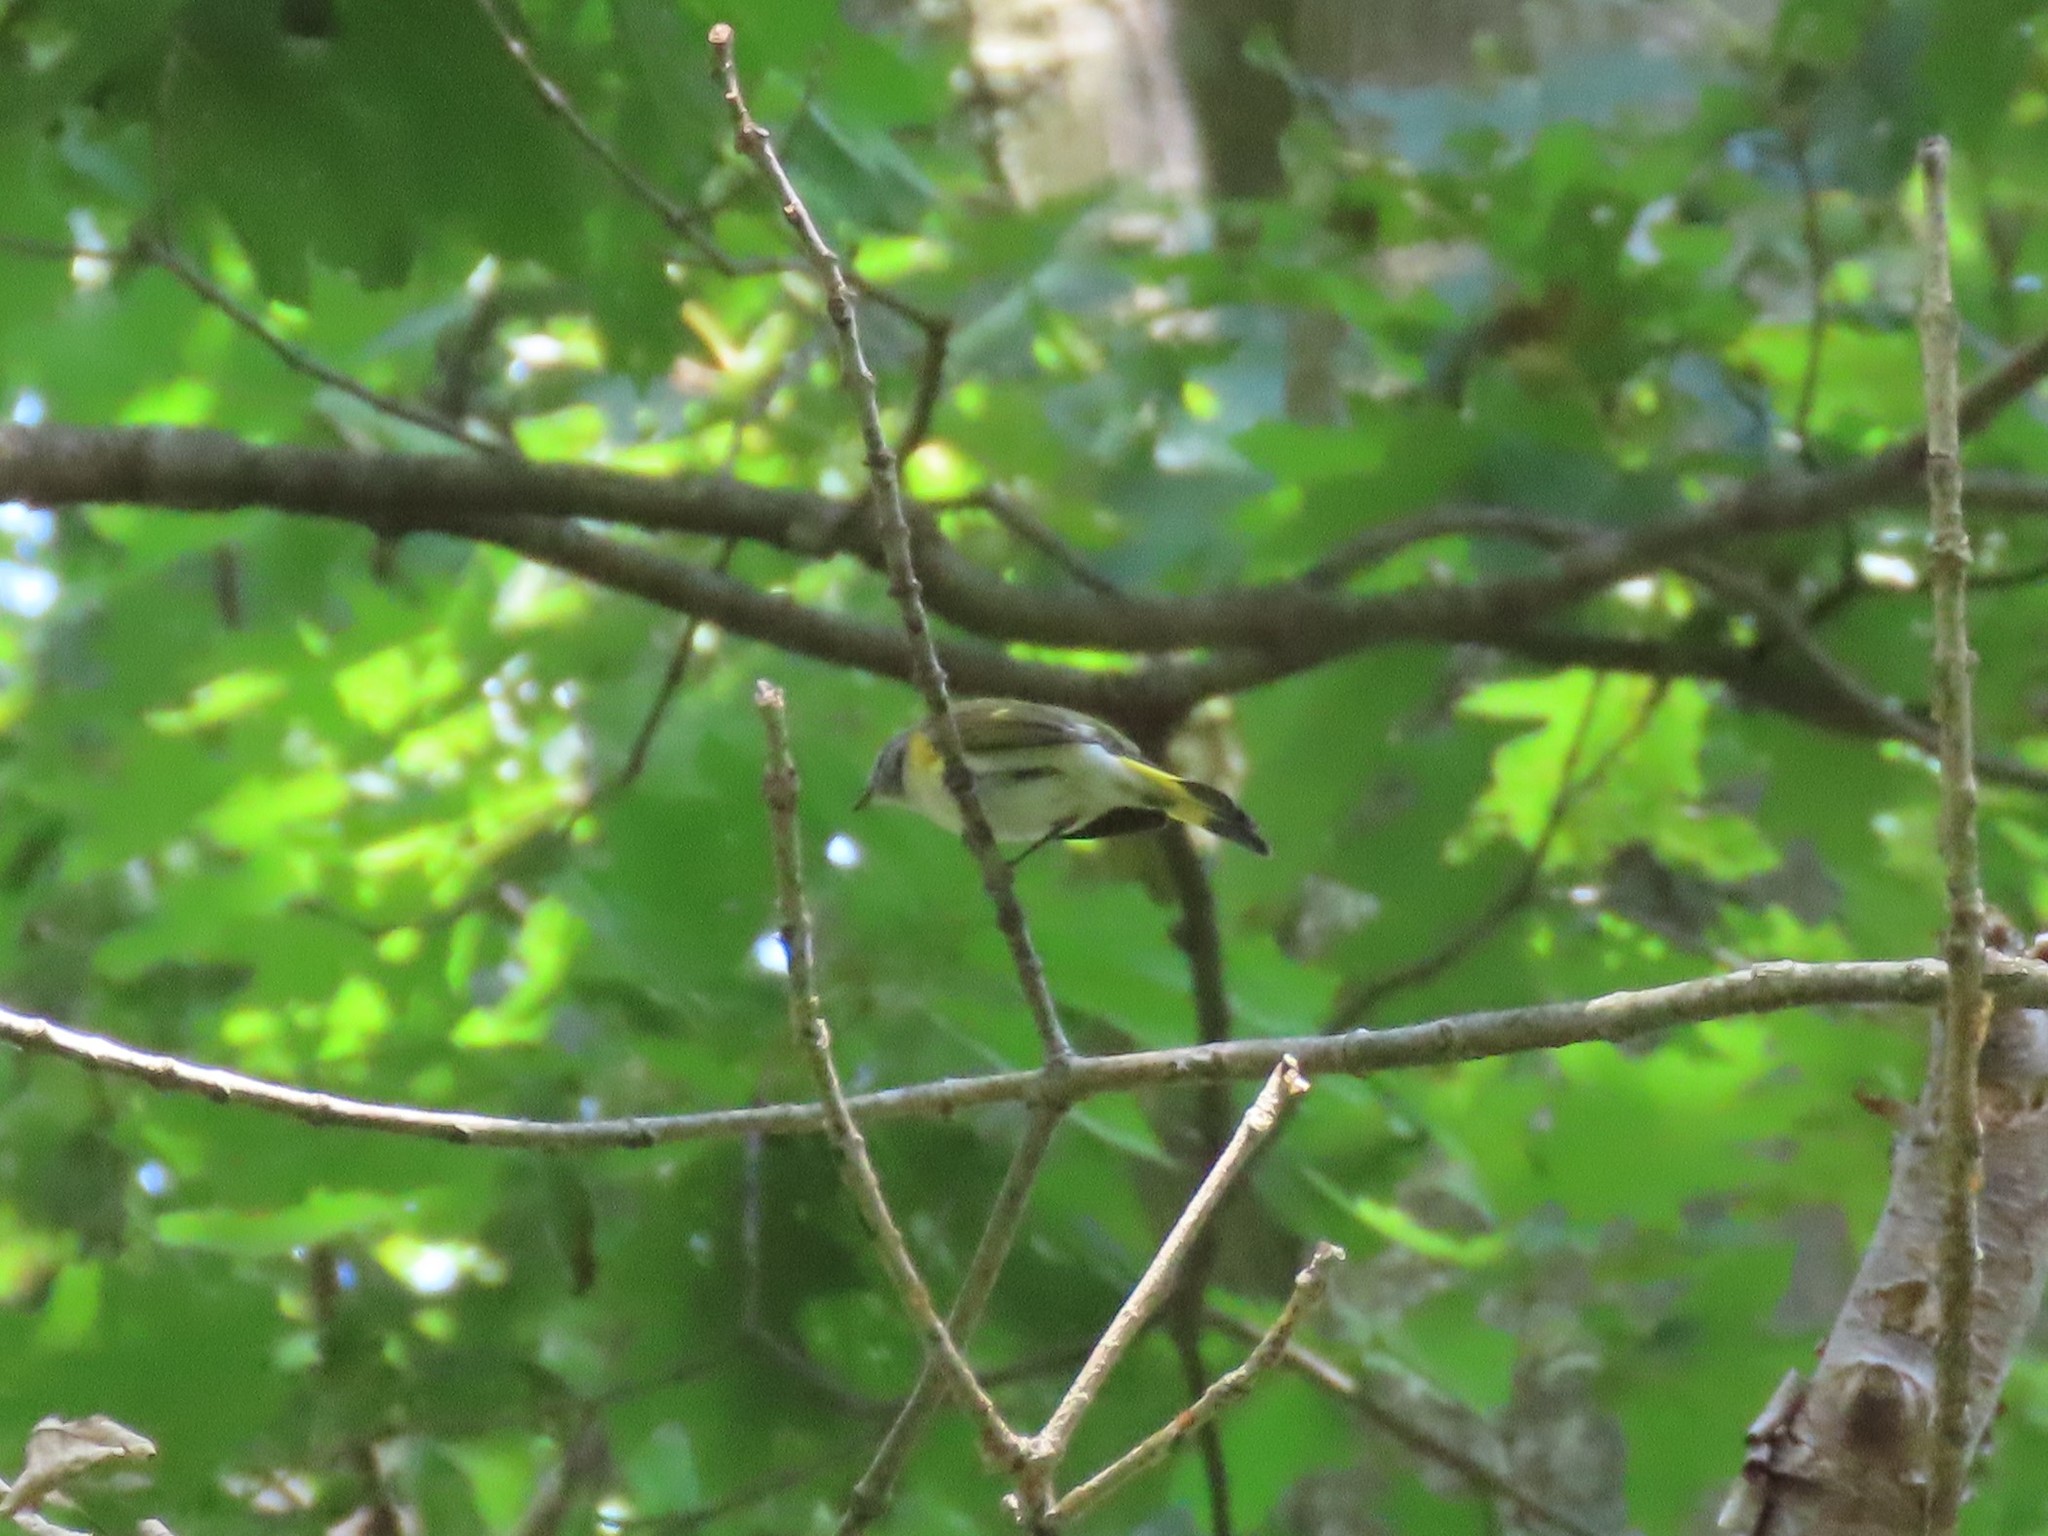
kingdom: Animalia
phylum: Chordata
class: Aves
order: Passeriformes
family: Parulidae
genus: Setophaga
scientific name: Setophaga ruticilla
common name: American redstart
